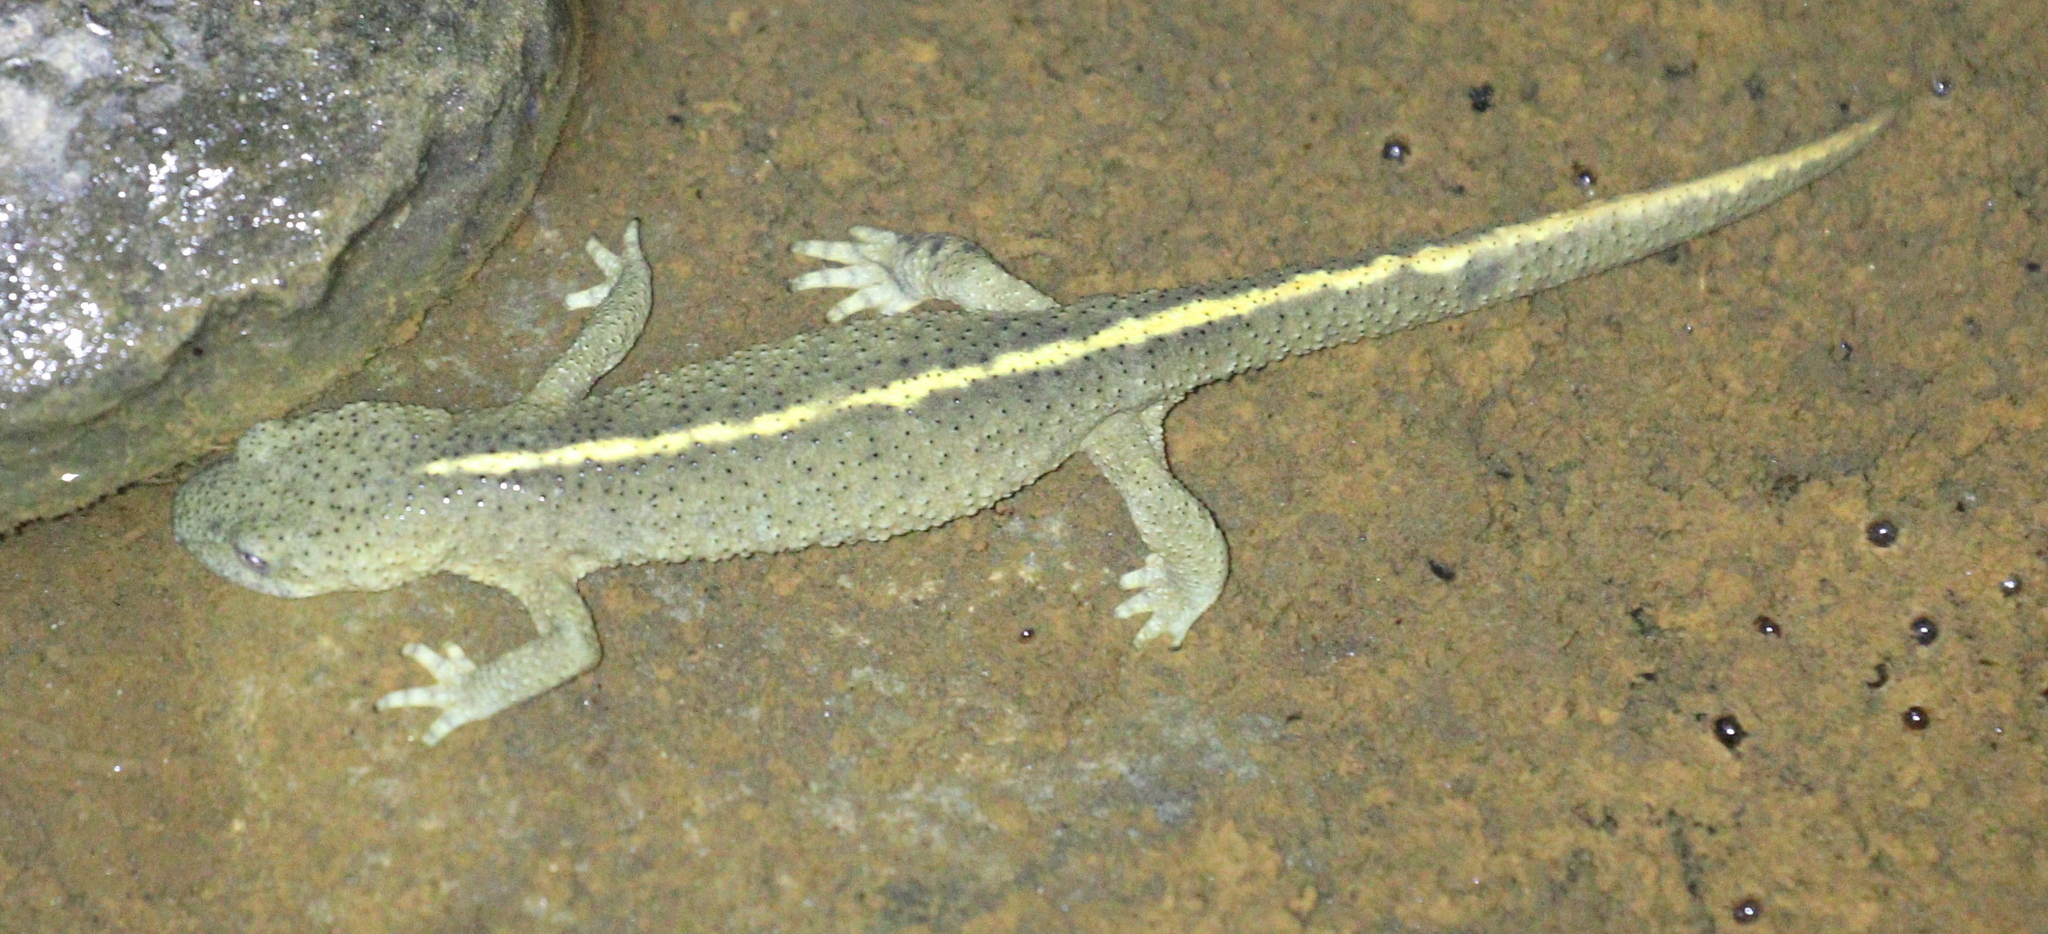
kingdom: Animalia
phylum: Chordata
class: Amphibia
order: Caudata
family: Salamandridae
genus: Calotriton
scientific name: Calotriton asper
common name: Pyrenean brook salamander
